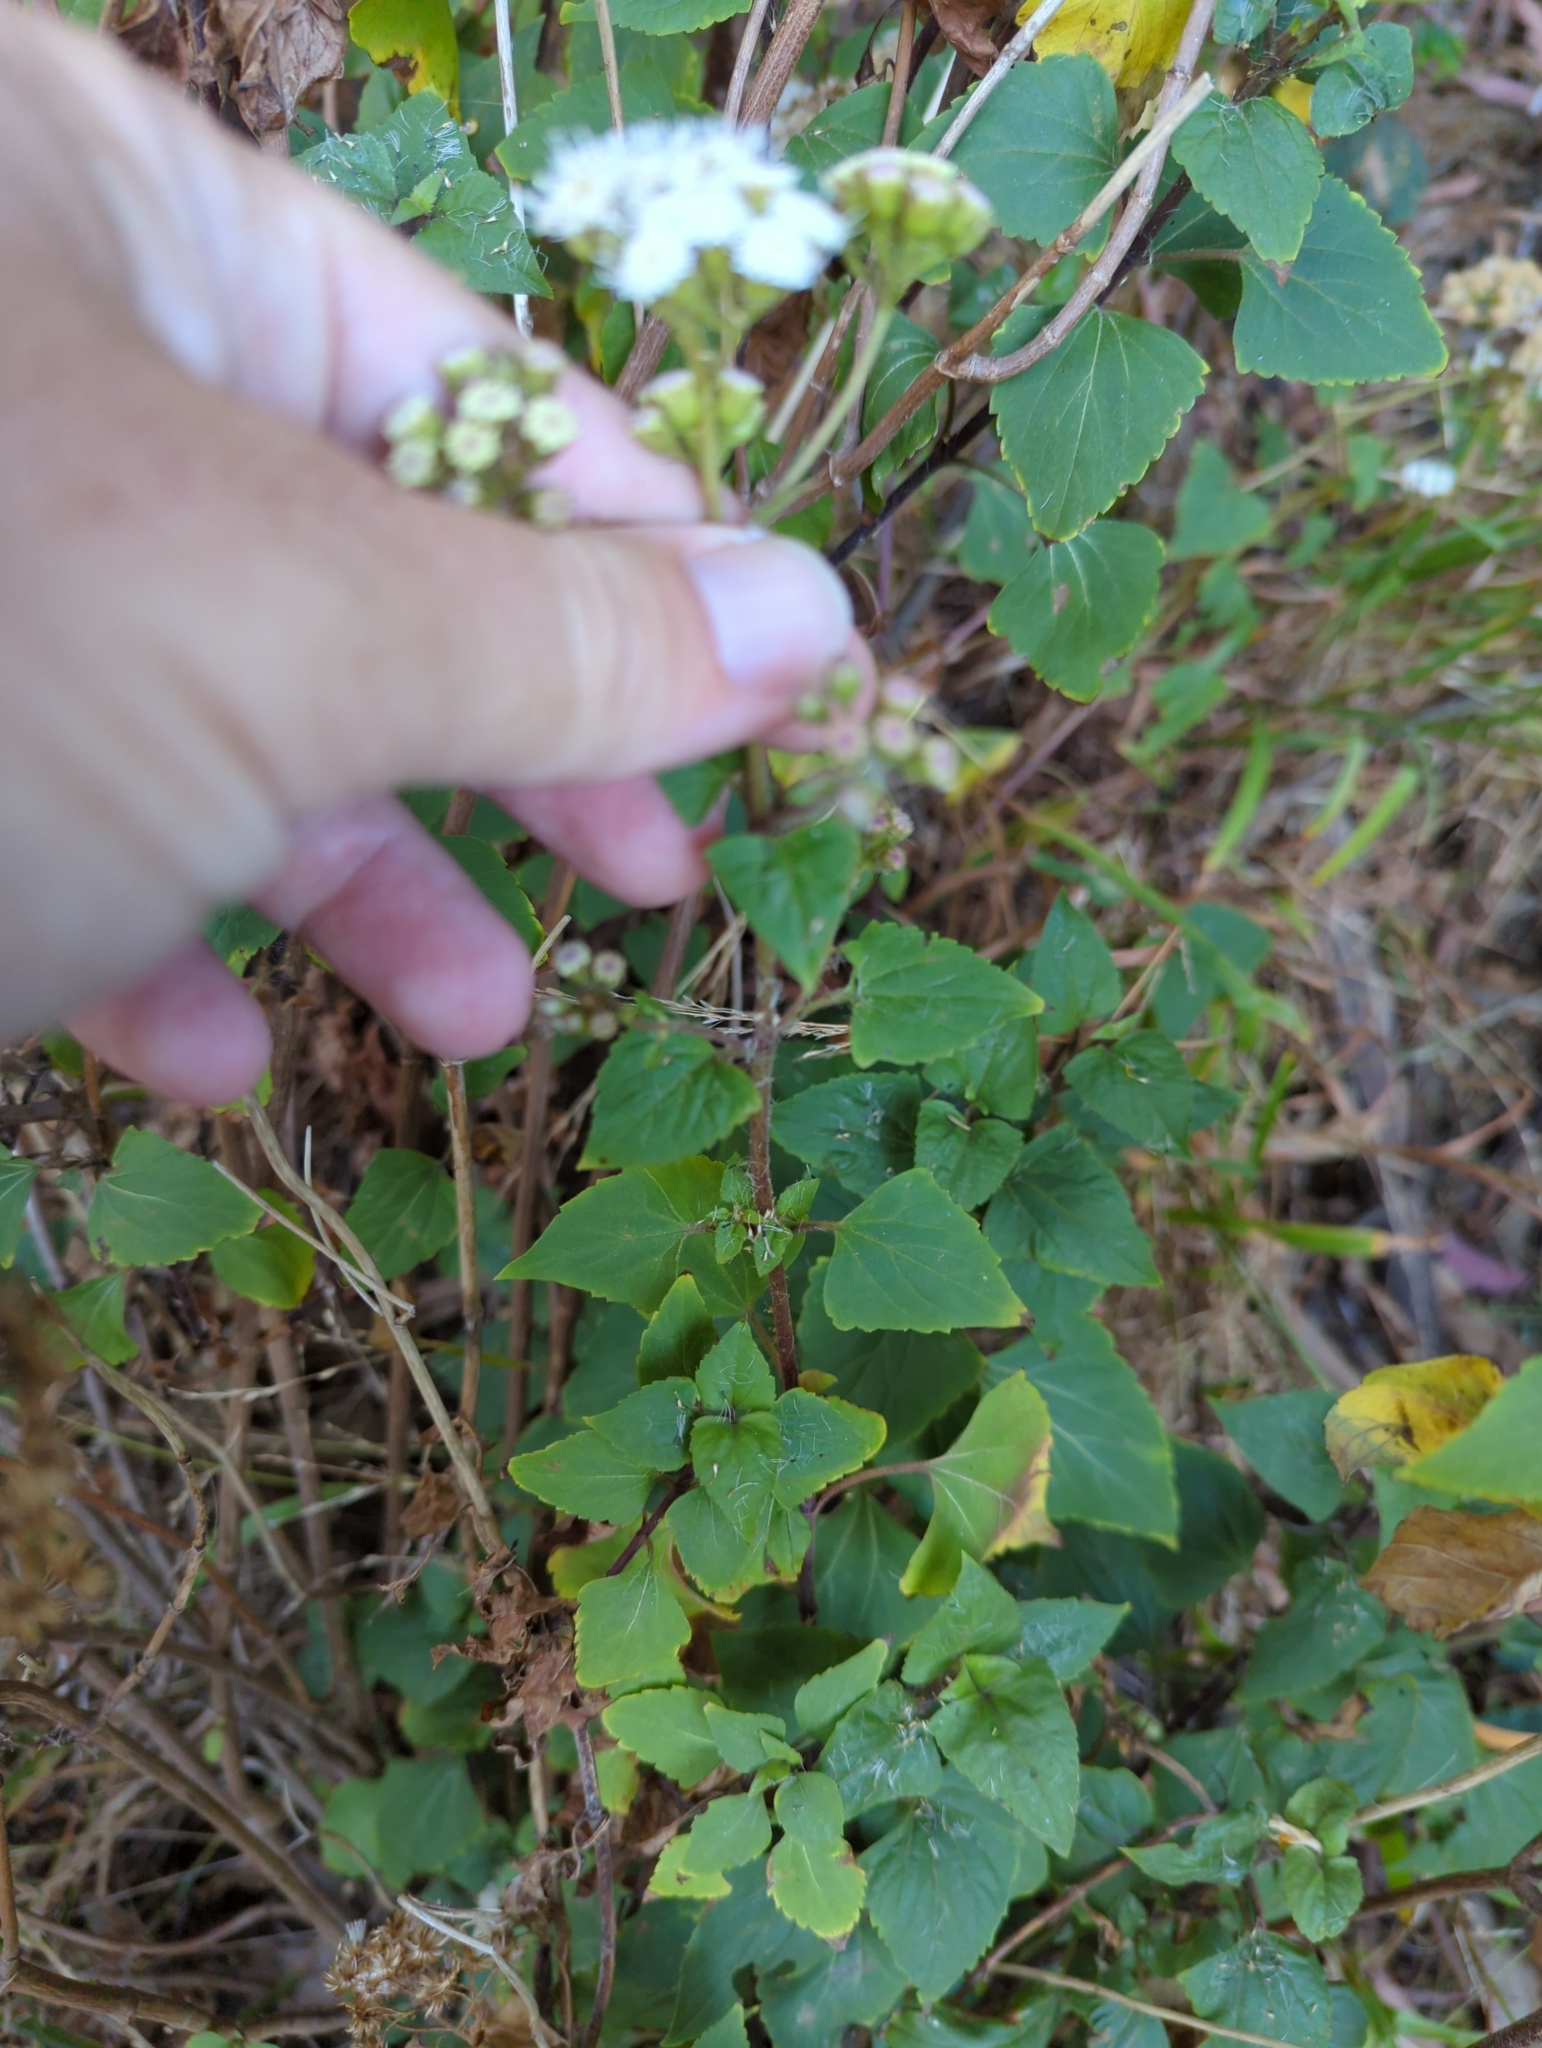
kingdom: Plantae
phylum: Tracheophyta
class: Magnoliopsida
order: Asterales
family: Asteraceae
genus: Ageratina
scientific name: Ageratina adenophora
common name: Sticky snakeroot
